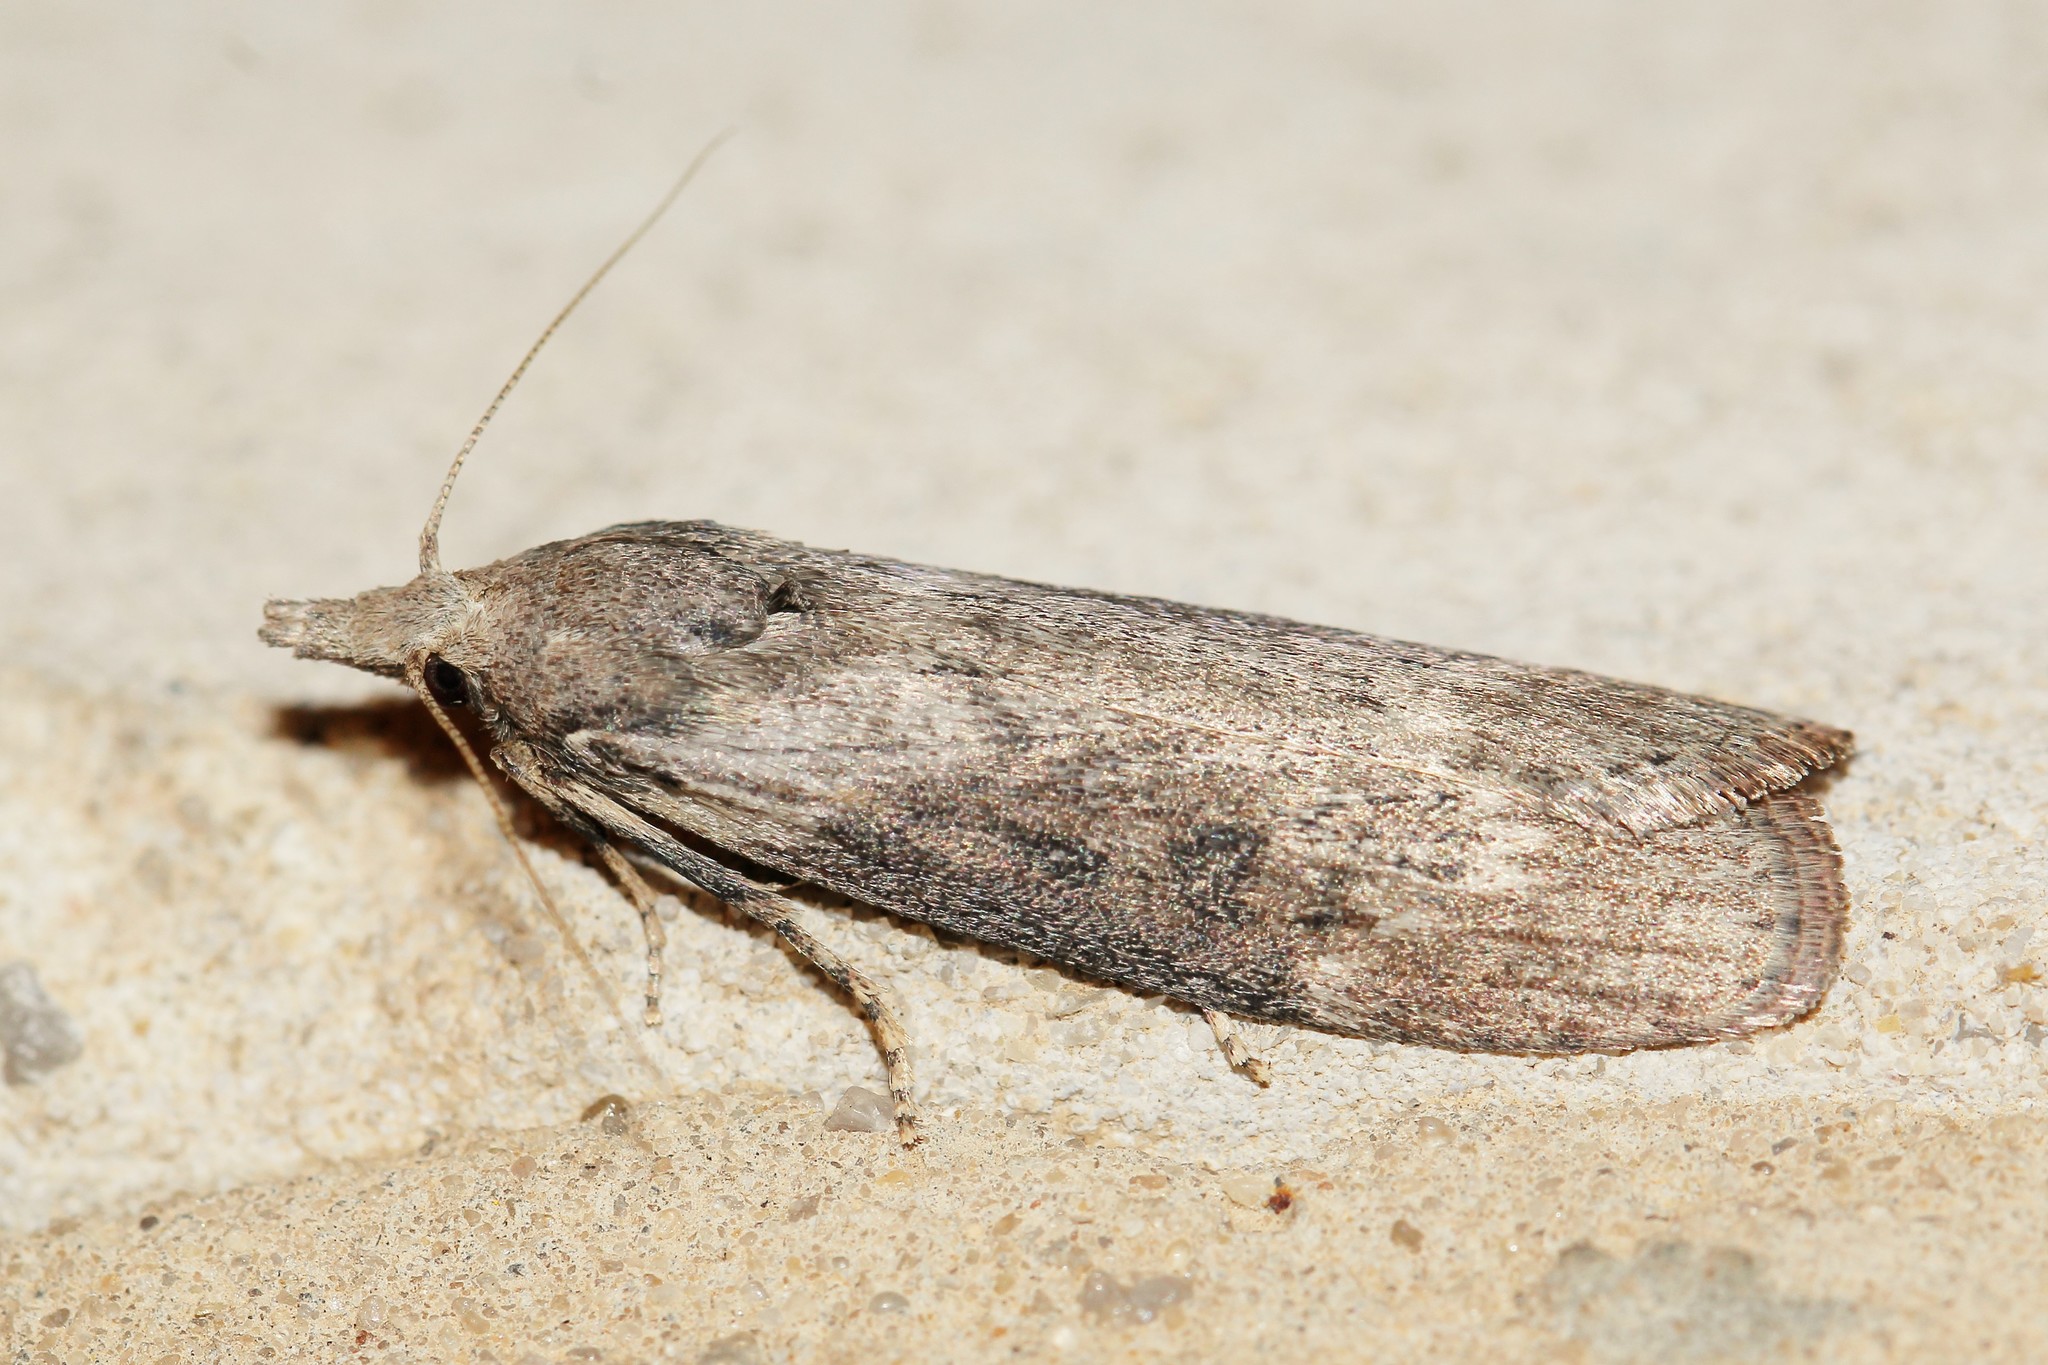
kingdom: Animalia
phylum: Arthropoda
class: Insecta
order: Lepidoptera
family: Pyralidae
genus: Lamoria
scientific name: Lamoria anella
